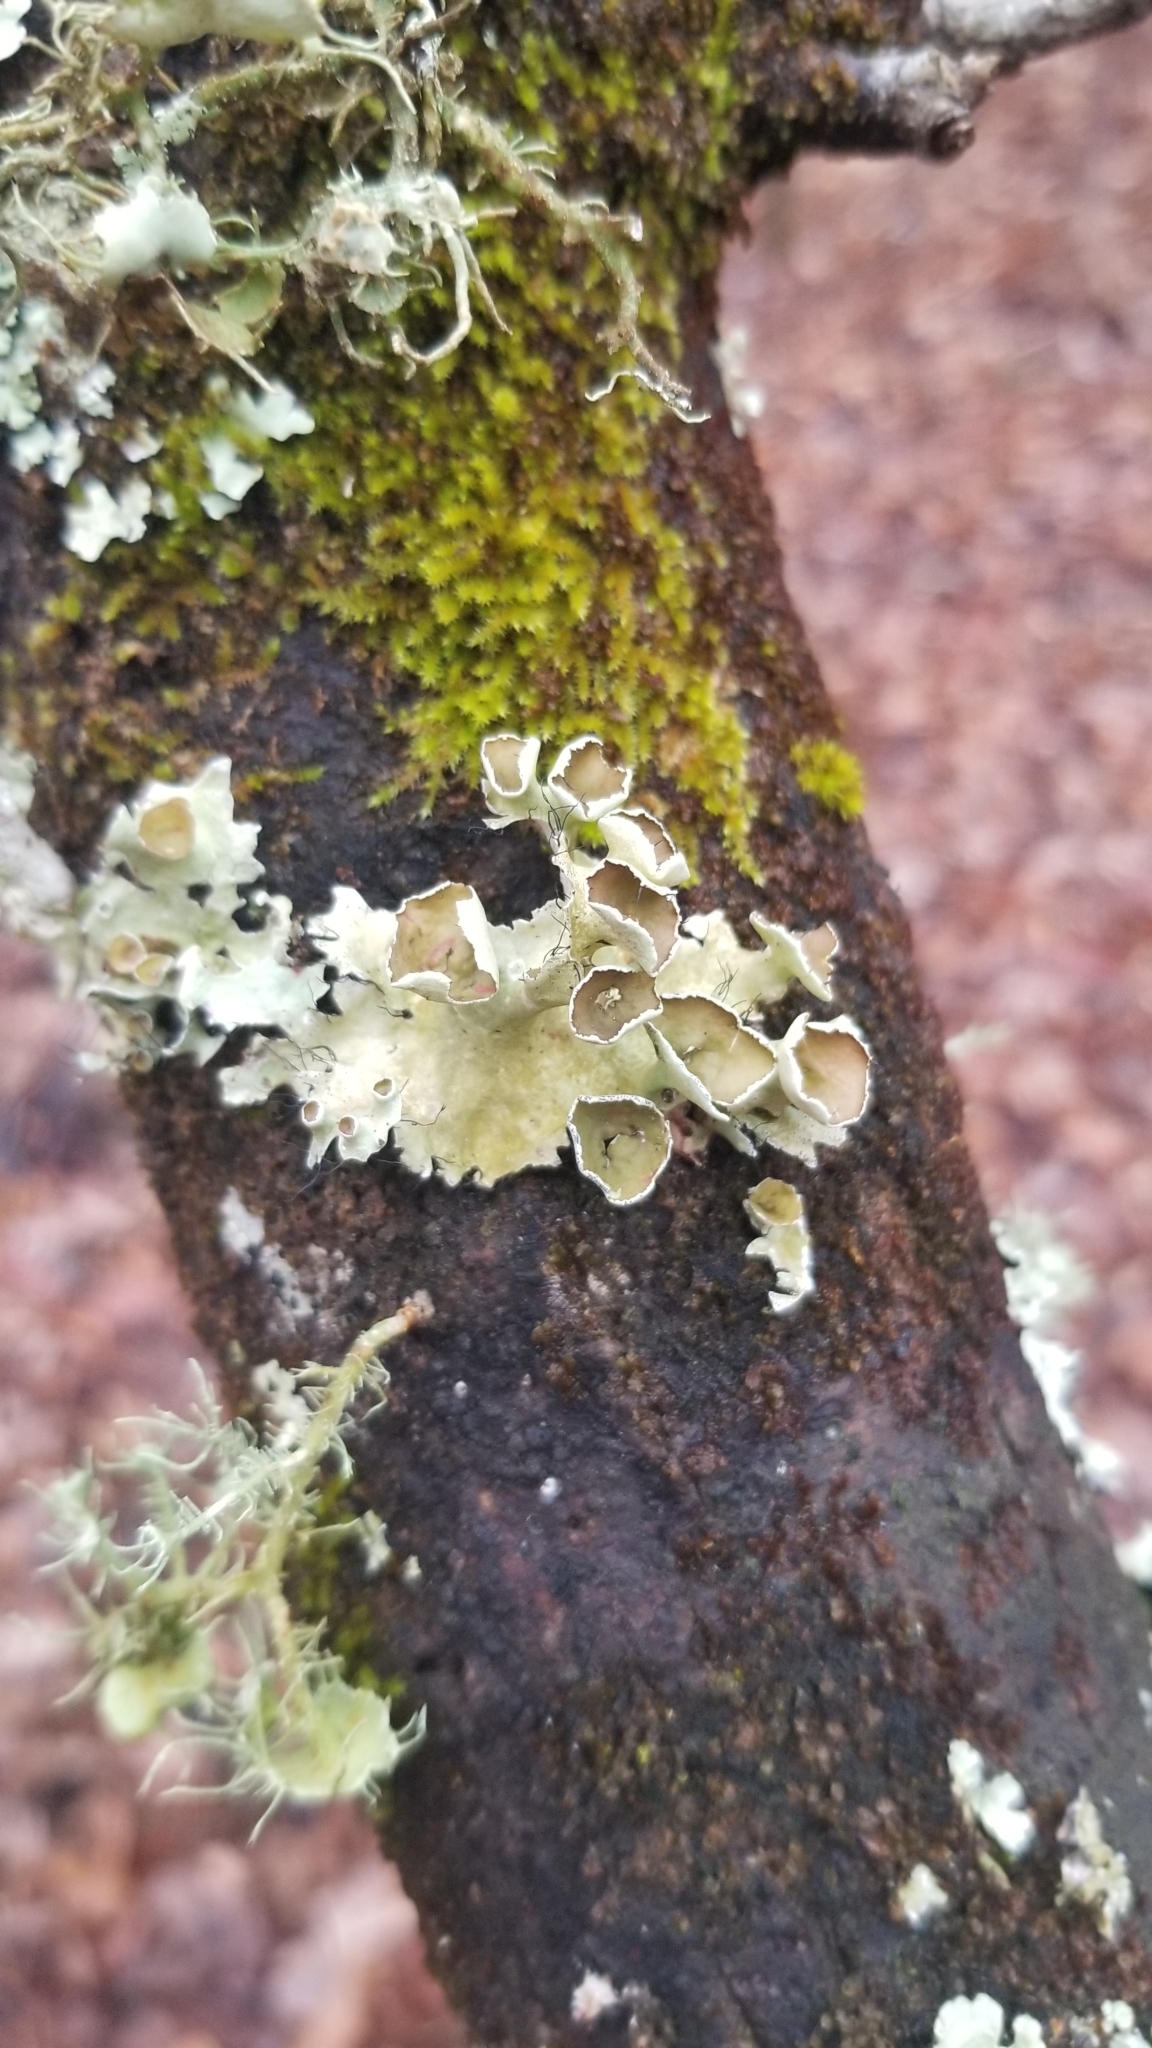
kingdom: Fungi
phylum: Ascomycota
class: Lecanoromycetes
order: Lecanorales
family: Parmeliaceae
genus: Parmotrema
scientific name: Parmotrema perforatum
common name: Perforated ruffle lichen
